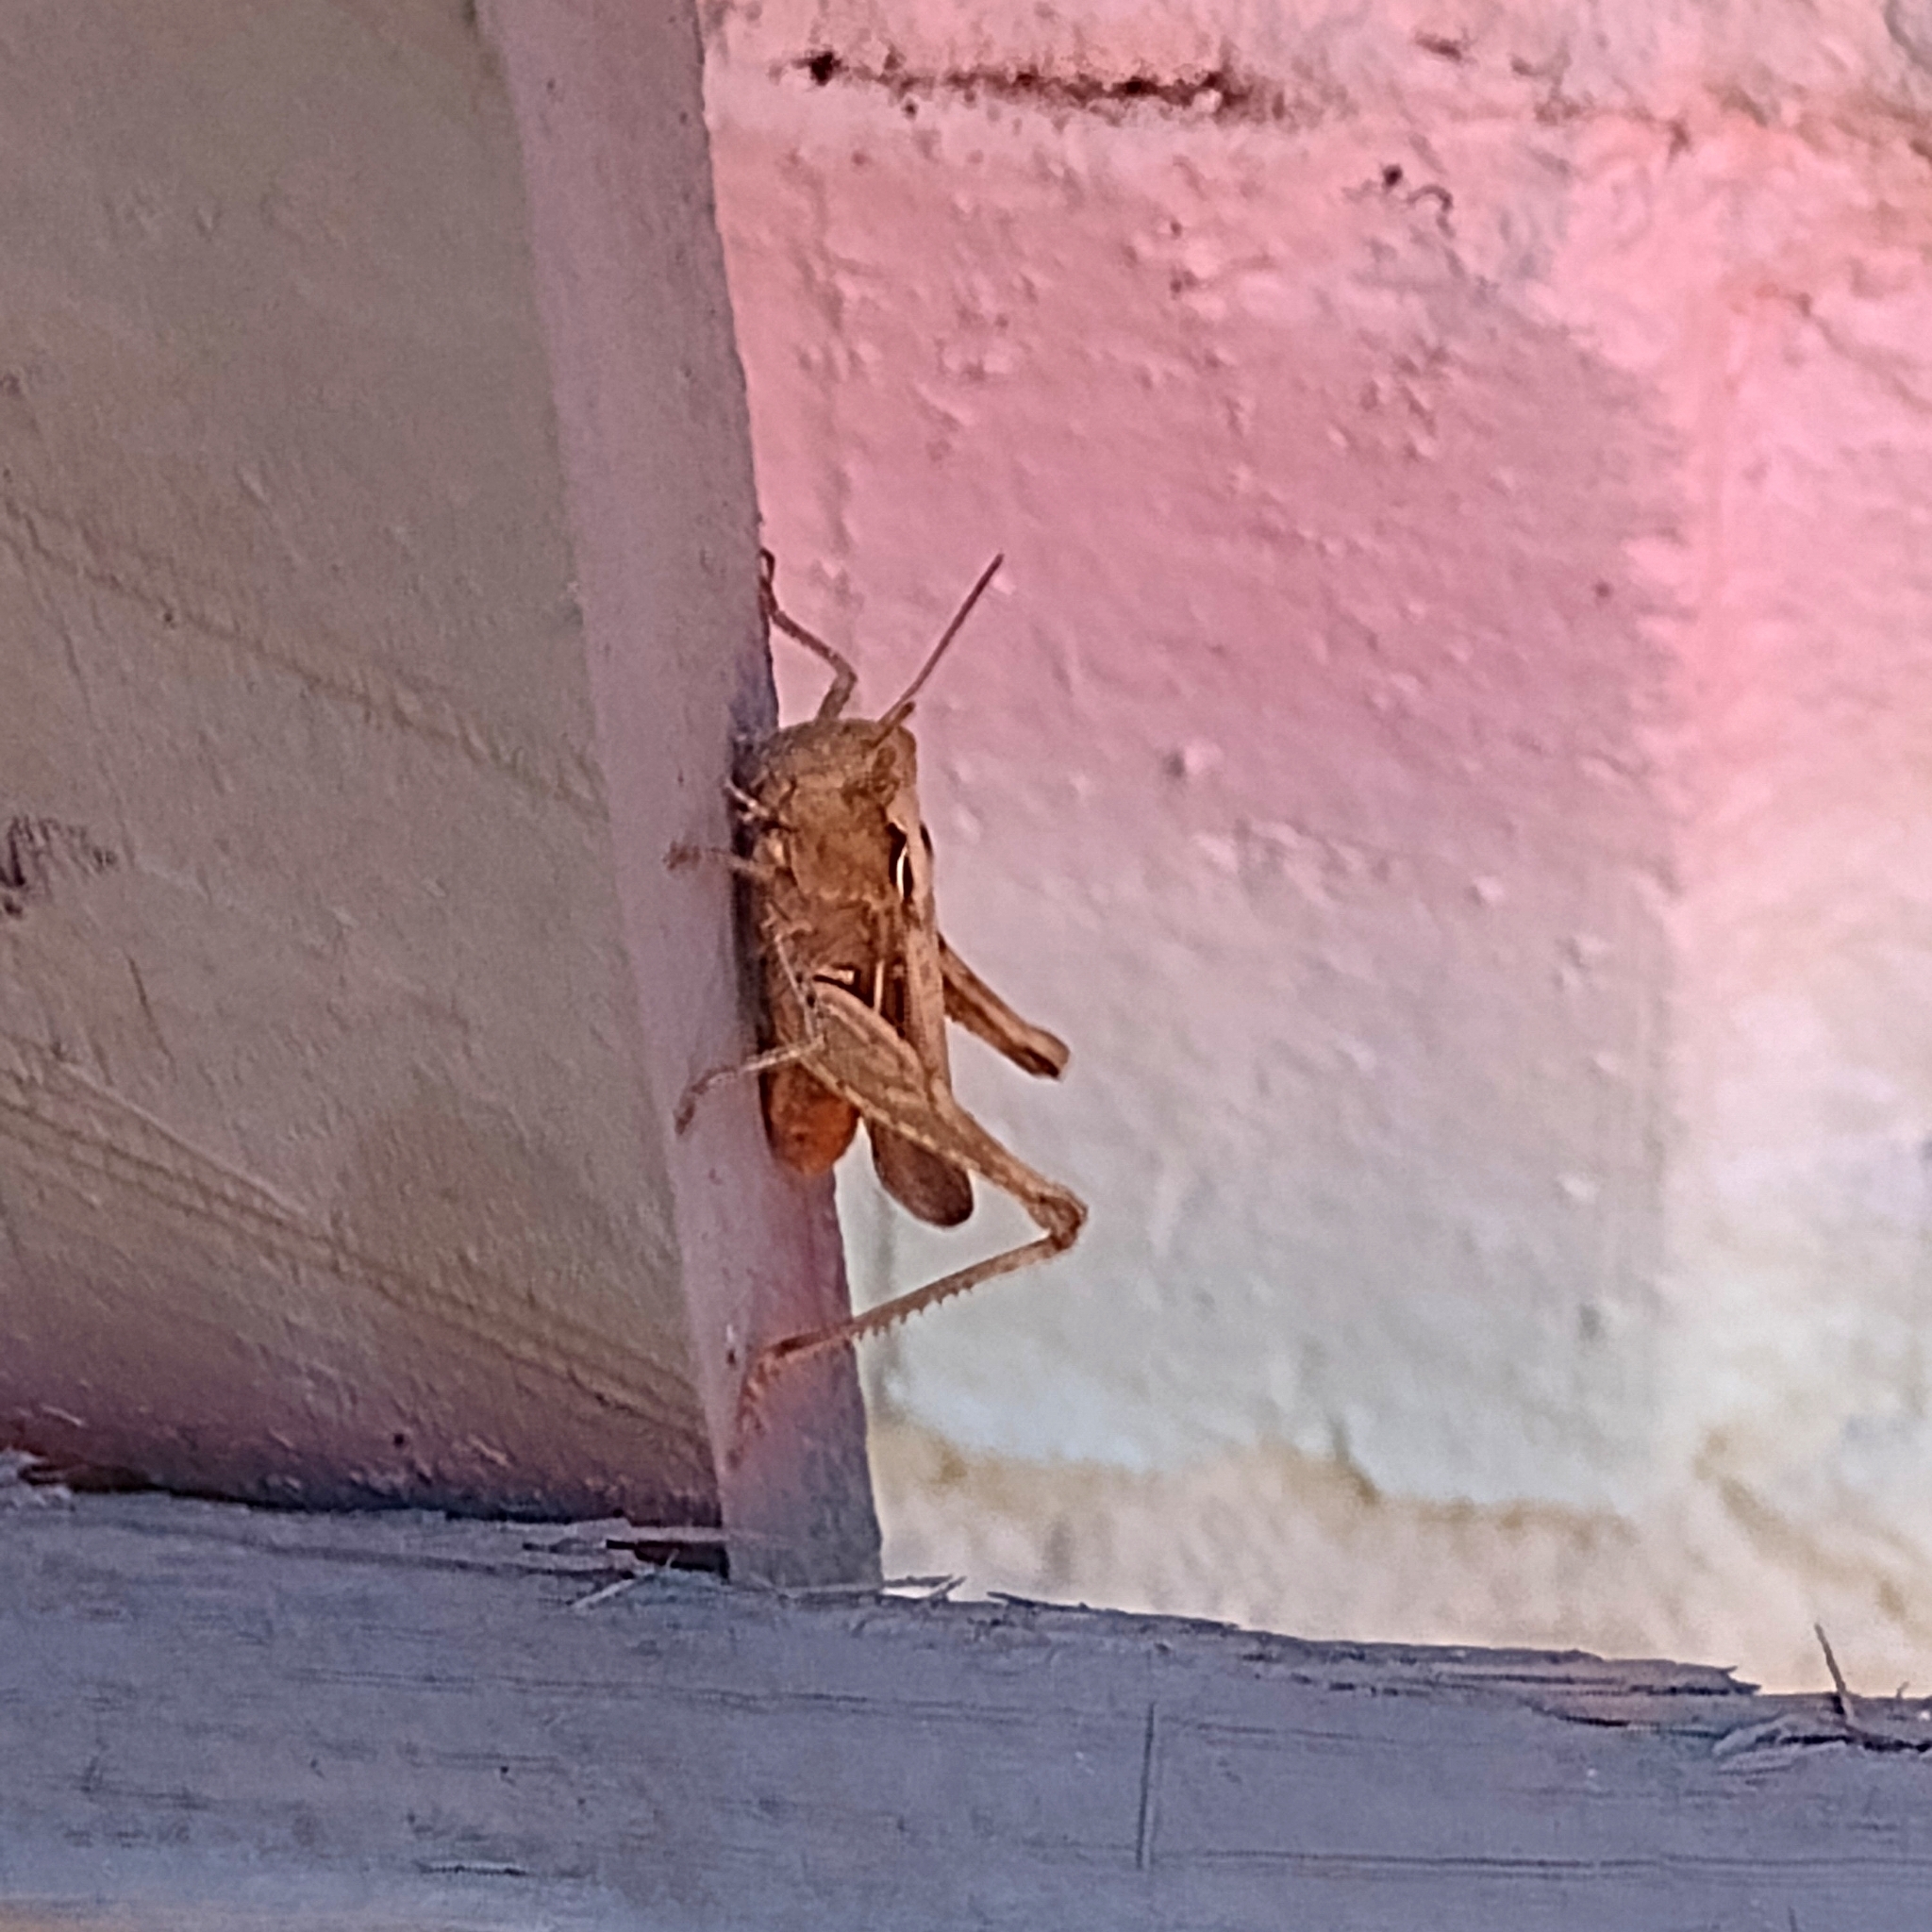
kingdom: Animalia
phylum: Arthropoda
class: Insecta
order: Orthoptera
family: Acrididae
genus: Chorthippus
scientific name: Chorthippus brunneus
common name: Field grasshopper
